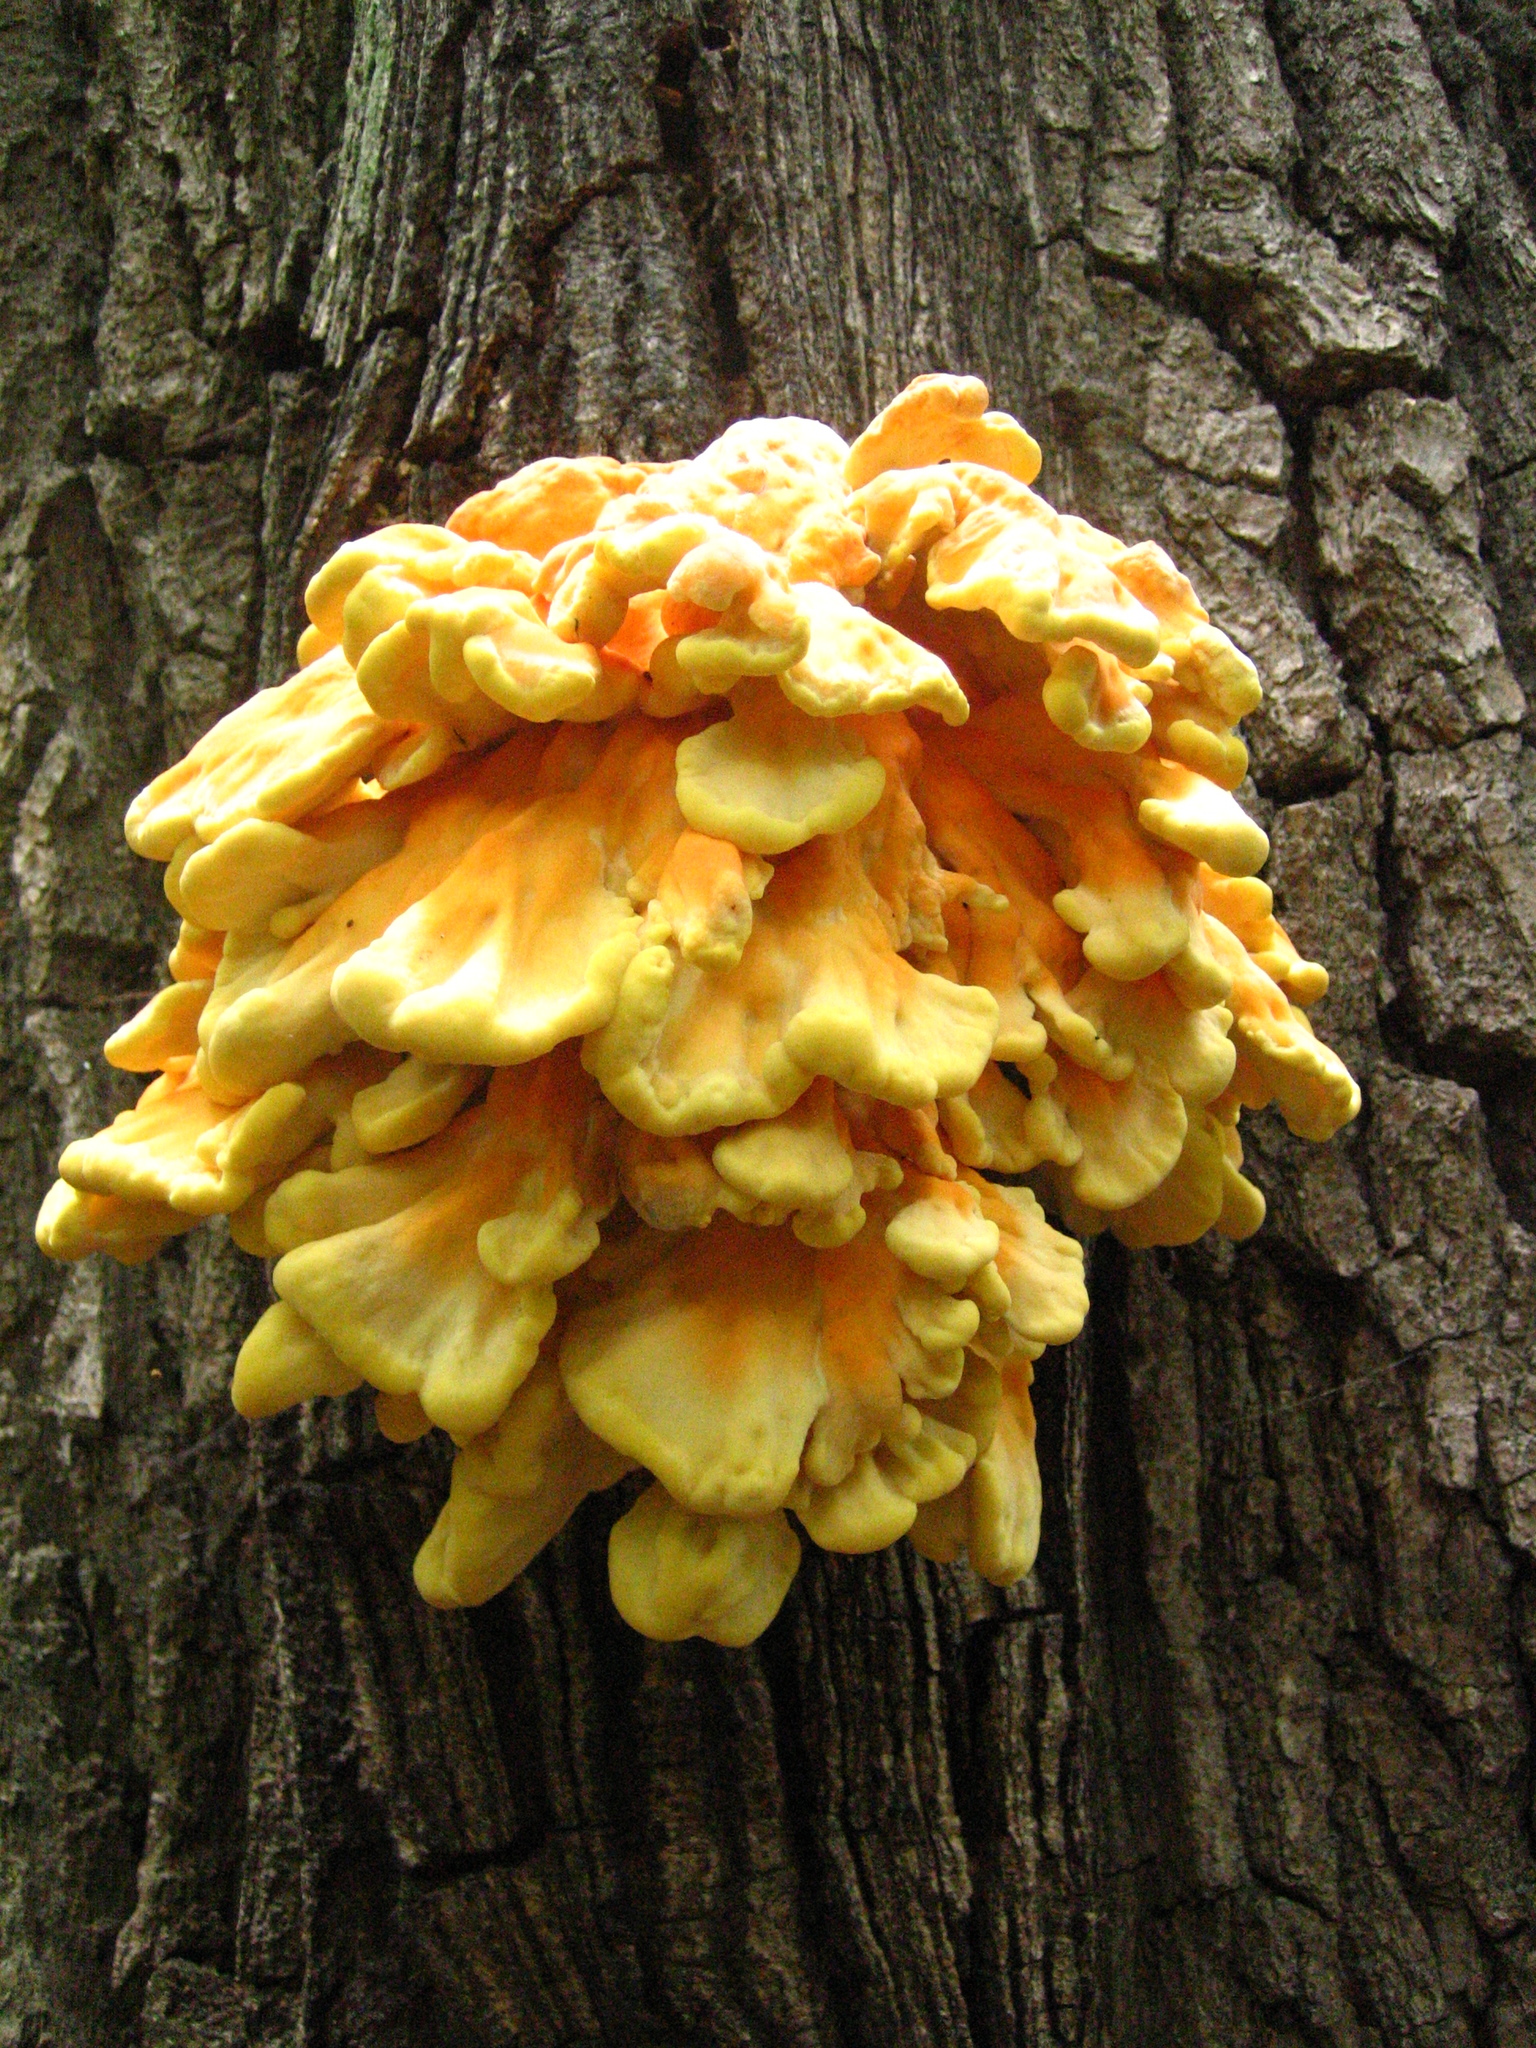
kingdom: Fungi
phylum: Basidiomycota
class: Agaricomycetes
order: Polyporales
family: Laetiporaceae
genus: Laetiporus
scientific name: Laetiporus sulphureus
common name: Chicken of the woods
